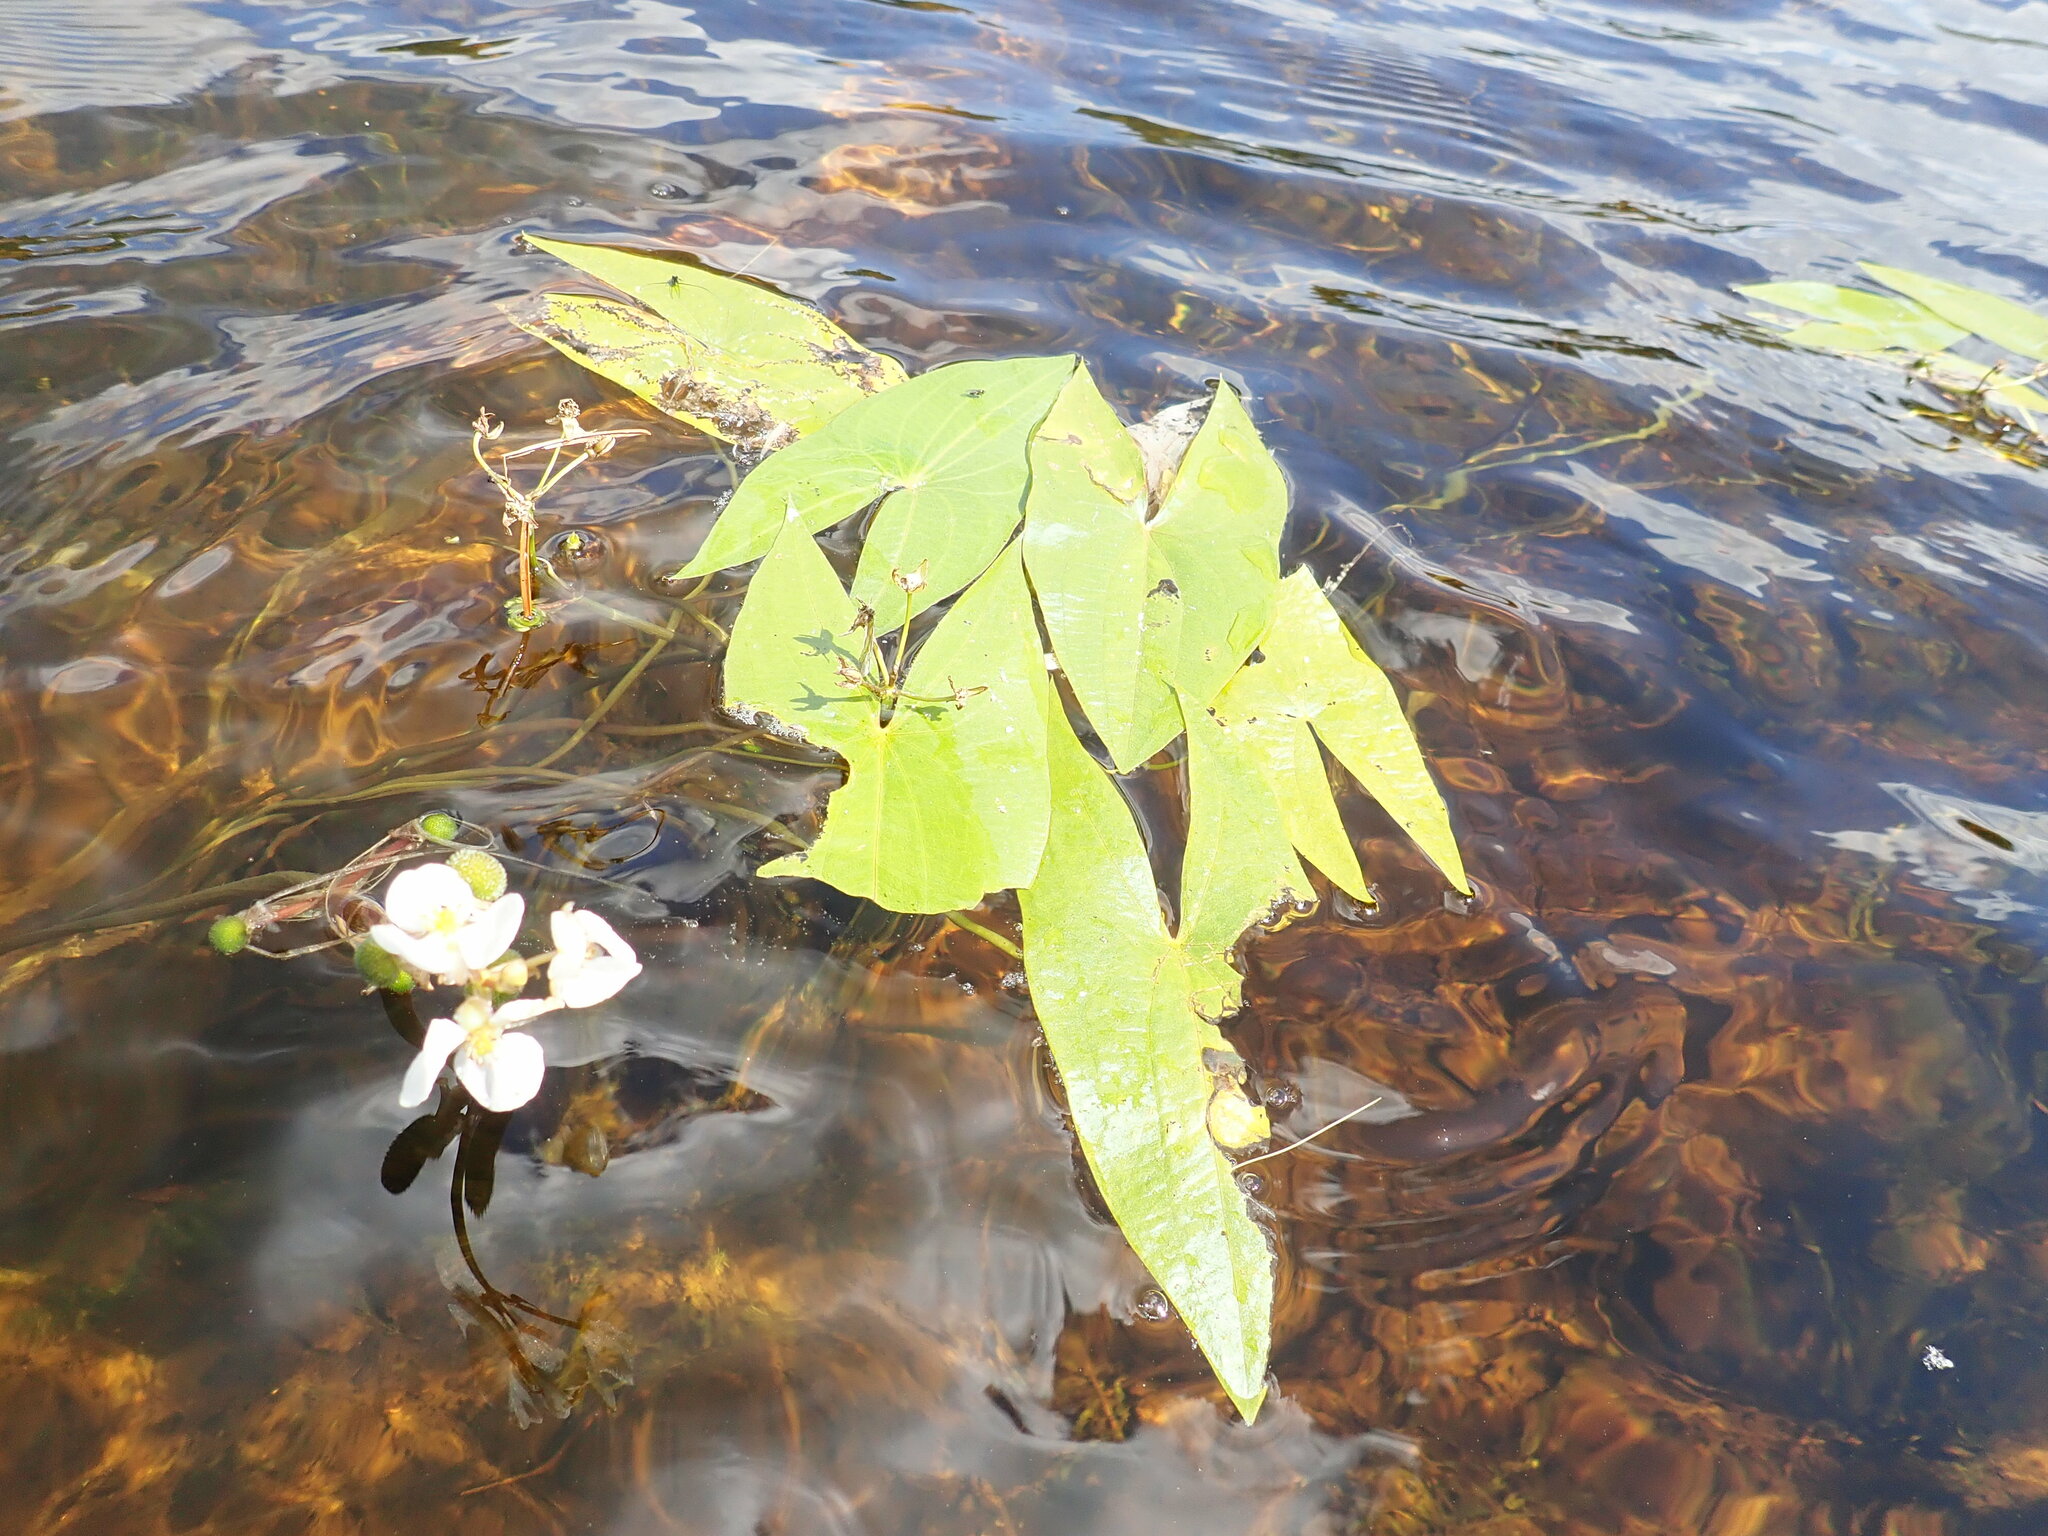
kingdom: Plantae
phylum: Tracheophyta
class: Liliopsida
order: Alismatales
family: Alismataceae
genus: Sagittaria
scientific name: Sagittaria cuneata
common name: Northern arrowhead
